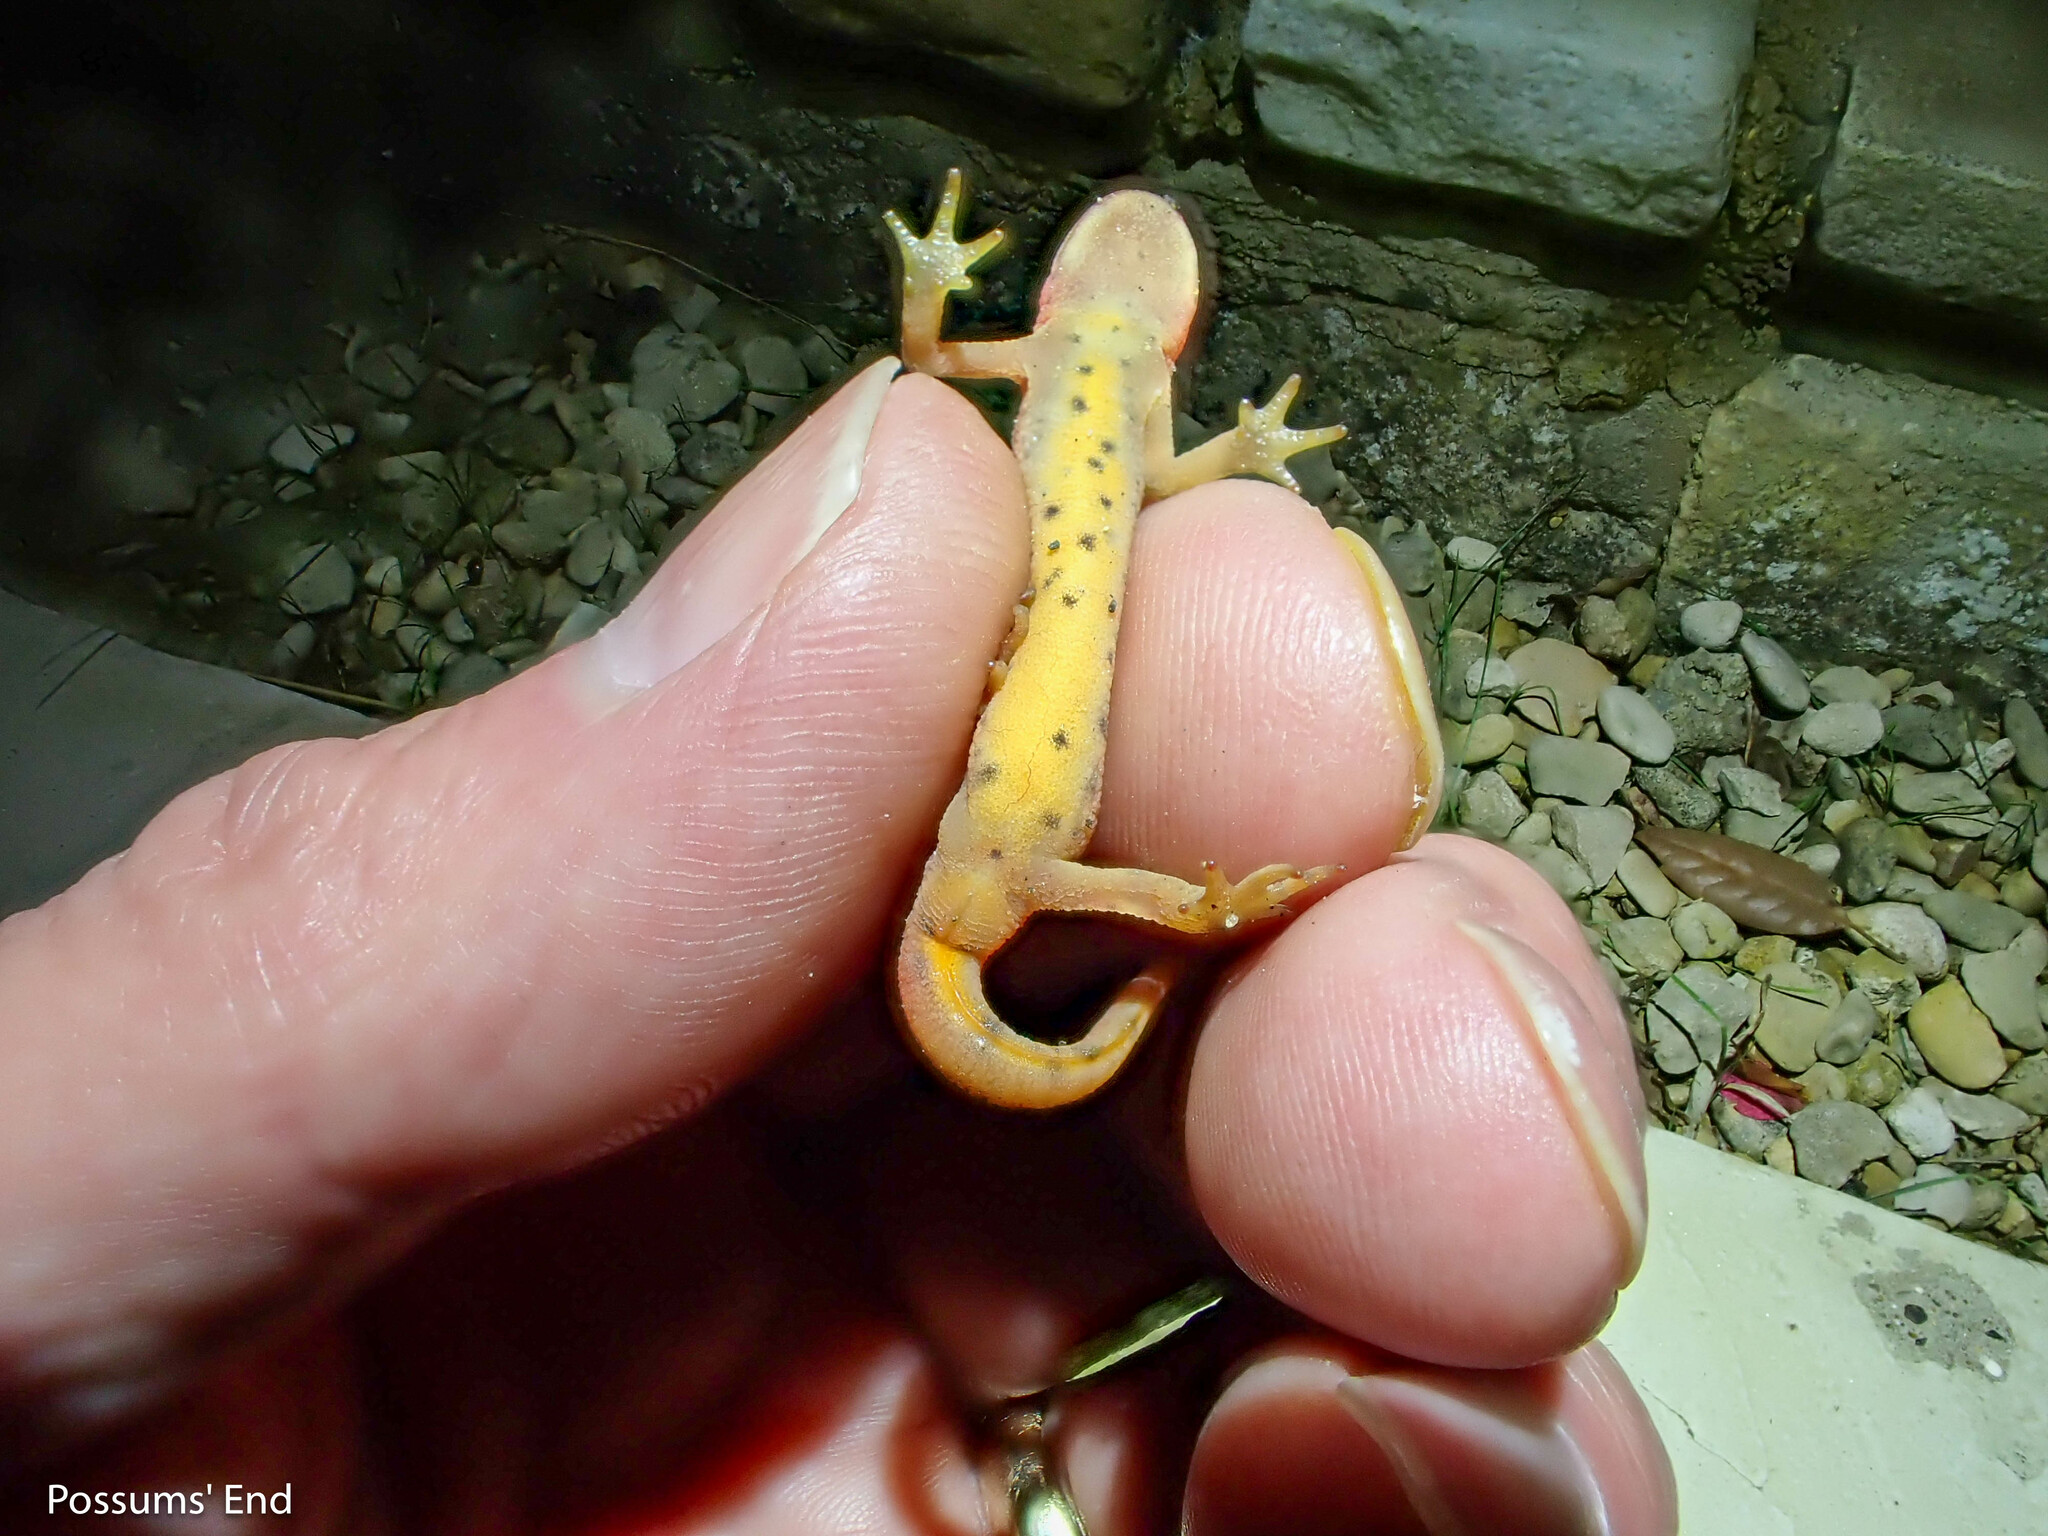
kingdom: Animalia
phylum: Chordata
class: Amphibia
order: Caudata
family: Salamandridae
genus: Lissotriton
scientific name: Lissotriton vulgaris
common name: Smooth newt
